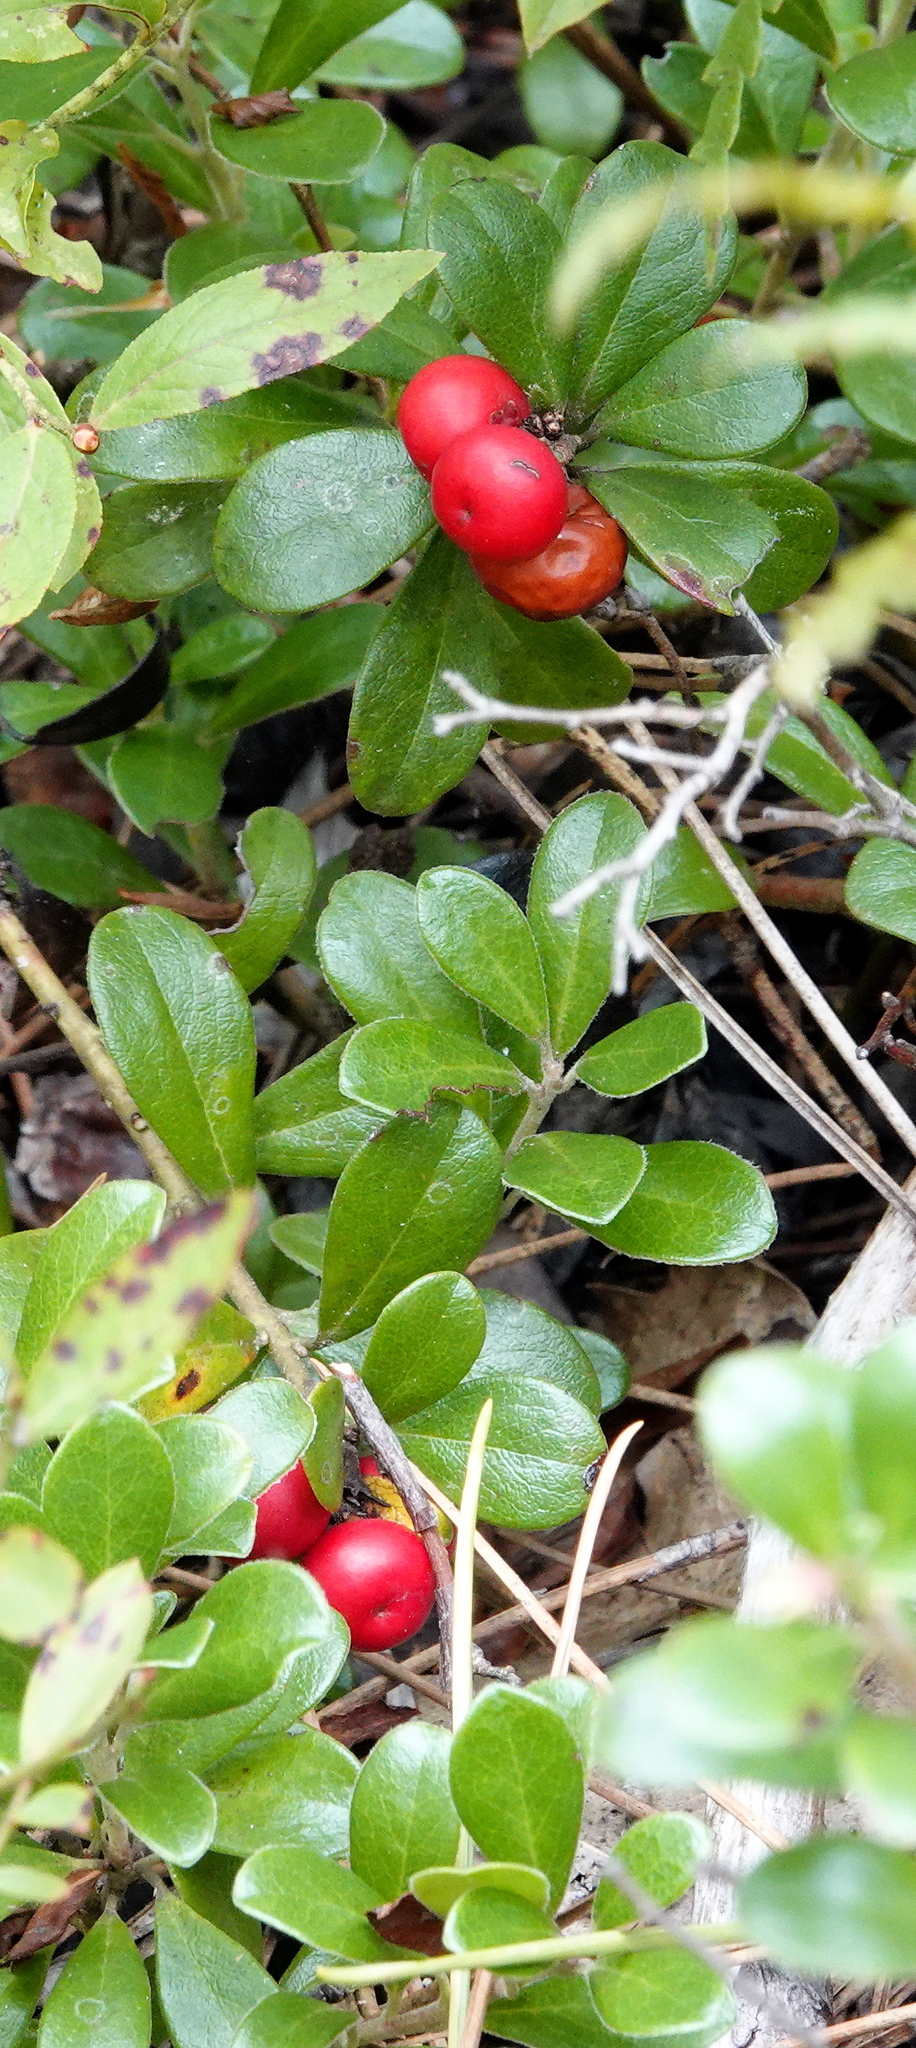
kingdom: Plantae
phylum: Tracheophyta
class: Magnoliopsida
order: Ericales
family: Ericaceae
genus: Arctostaphylos
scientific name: Arctostaphylos uva-ursi
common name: Bearberry
